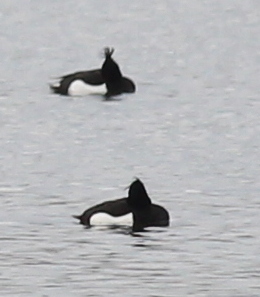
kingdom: Animalia
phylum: Chordata
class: Aves
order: Anseriformes
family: Anatidae
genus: Aythya
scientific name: Aythya fuligula
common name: Tufted duck
